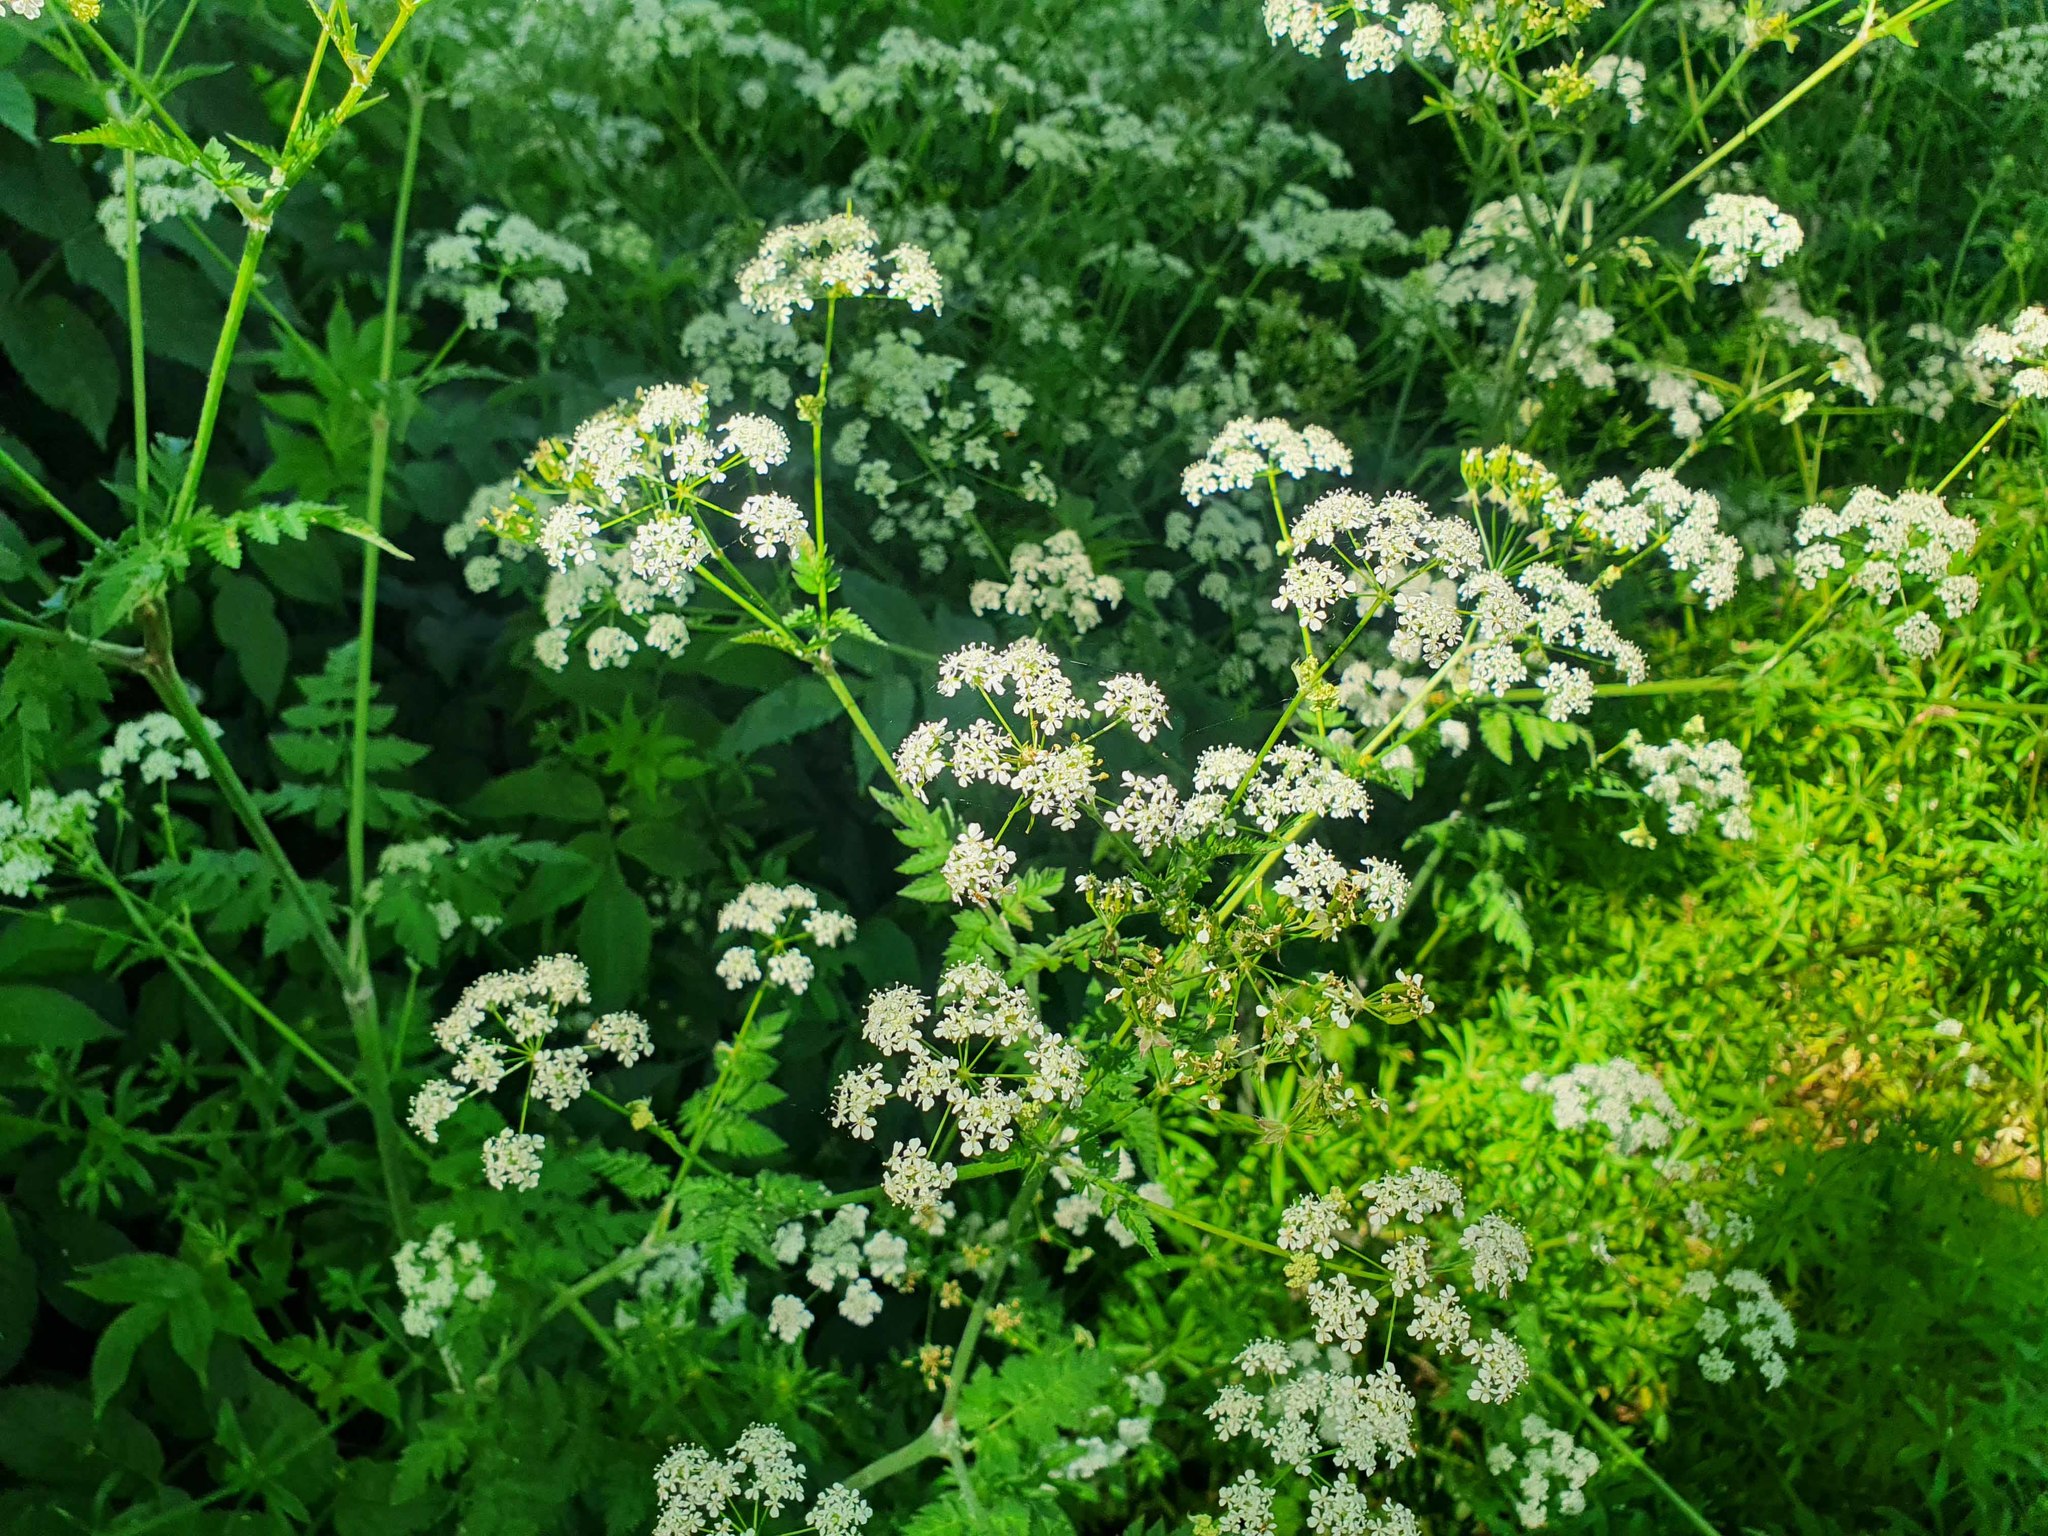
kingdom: Plantae
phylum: Tracheophyta
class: Magnoliopsida
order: Apiales
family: Apiaceae
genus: Anthriscus
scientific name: Anthriscus sylvestris
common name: Cow parsley
